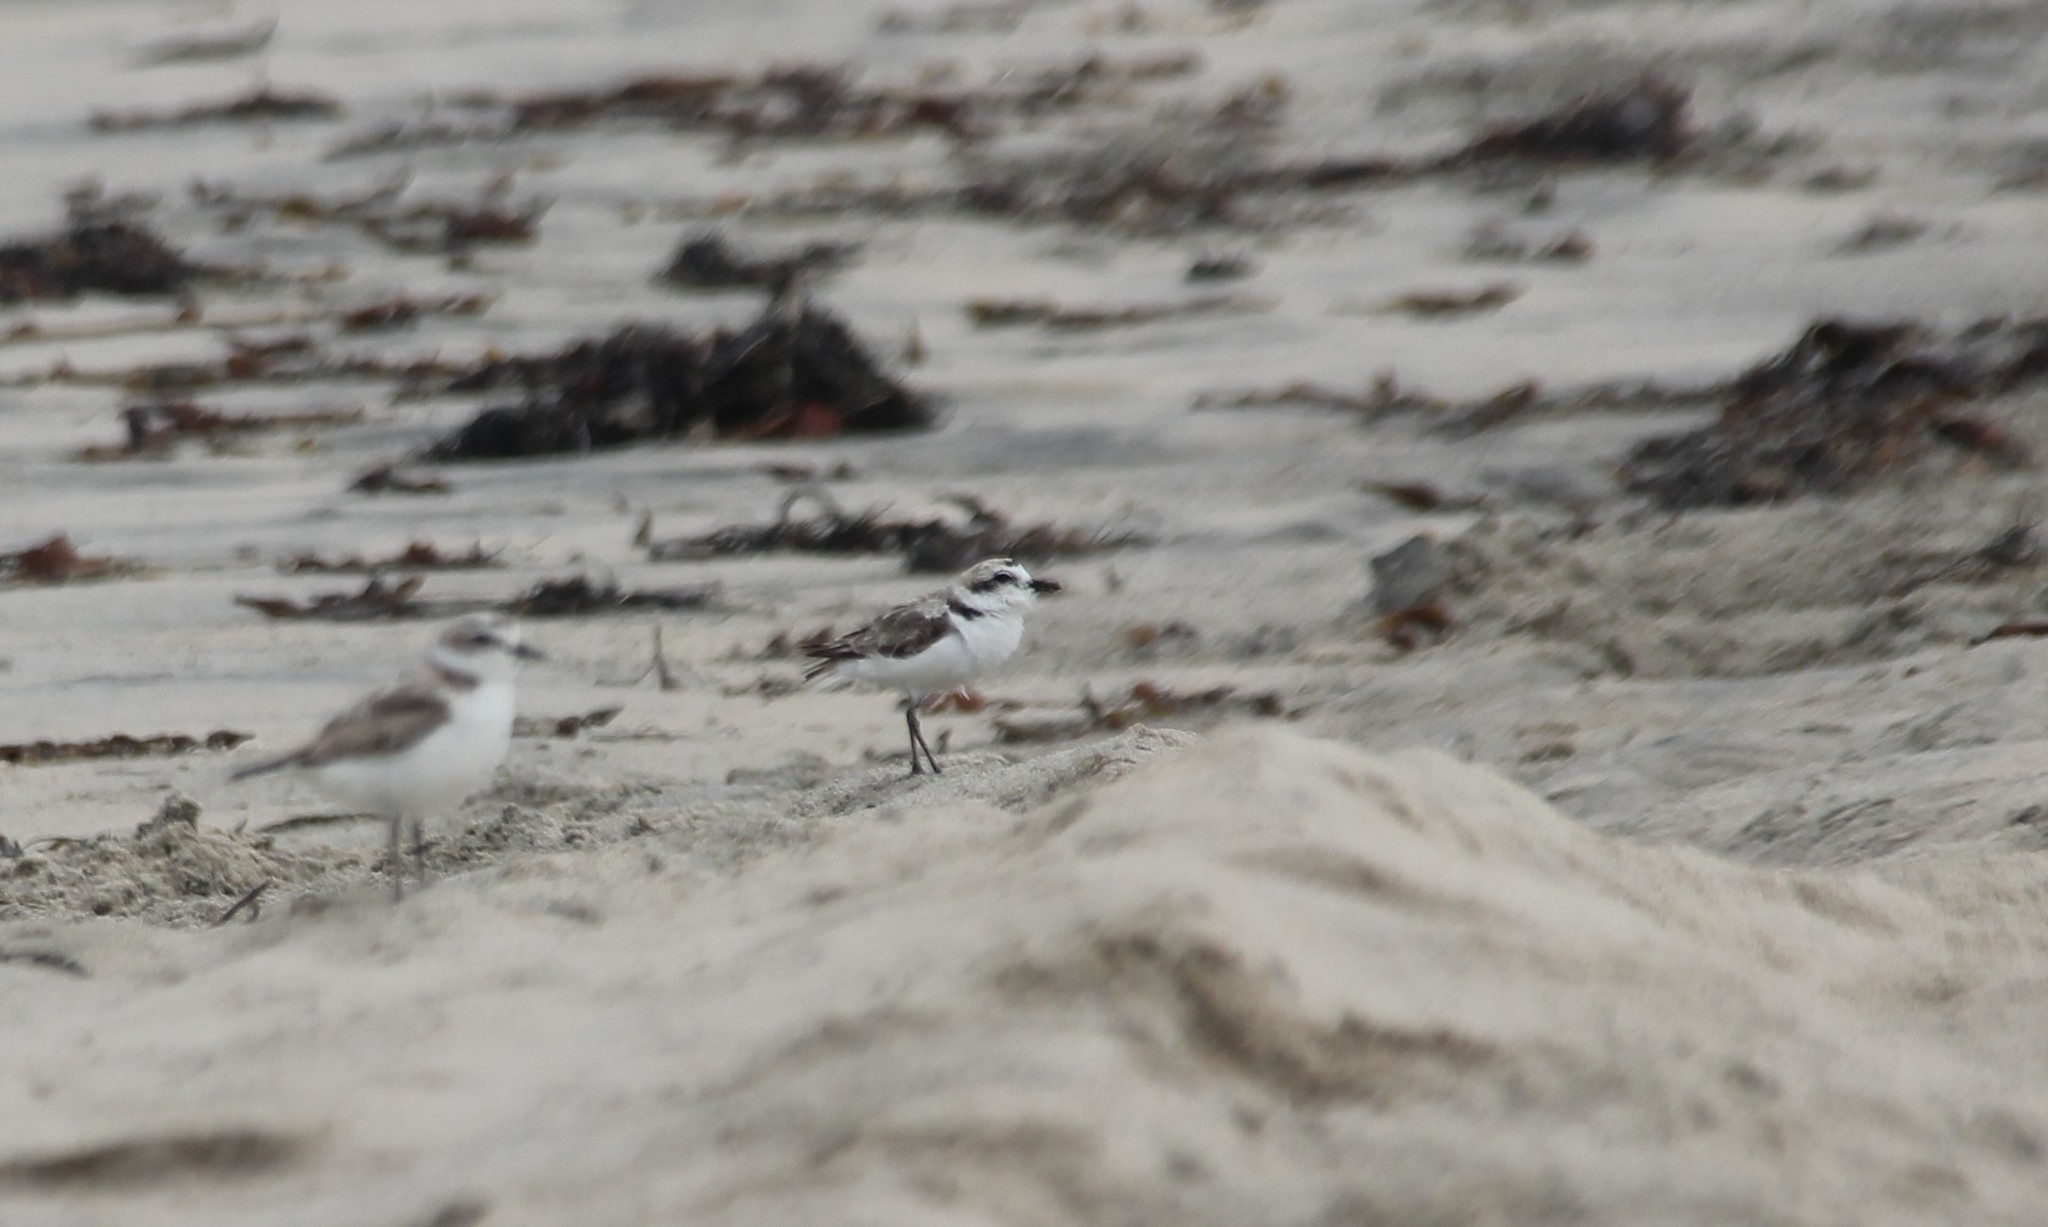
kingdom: Animalia
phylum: Chordata
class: Aves
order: Charadriiformes
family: Charadriidae
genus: Anarhynchus
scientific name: Anarhynchus
